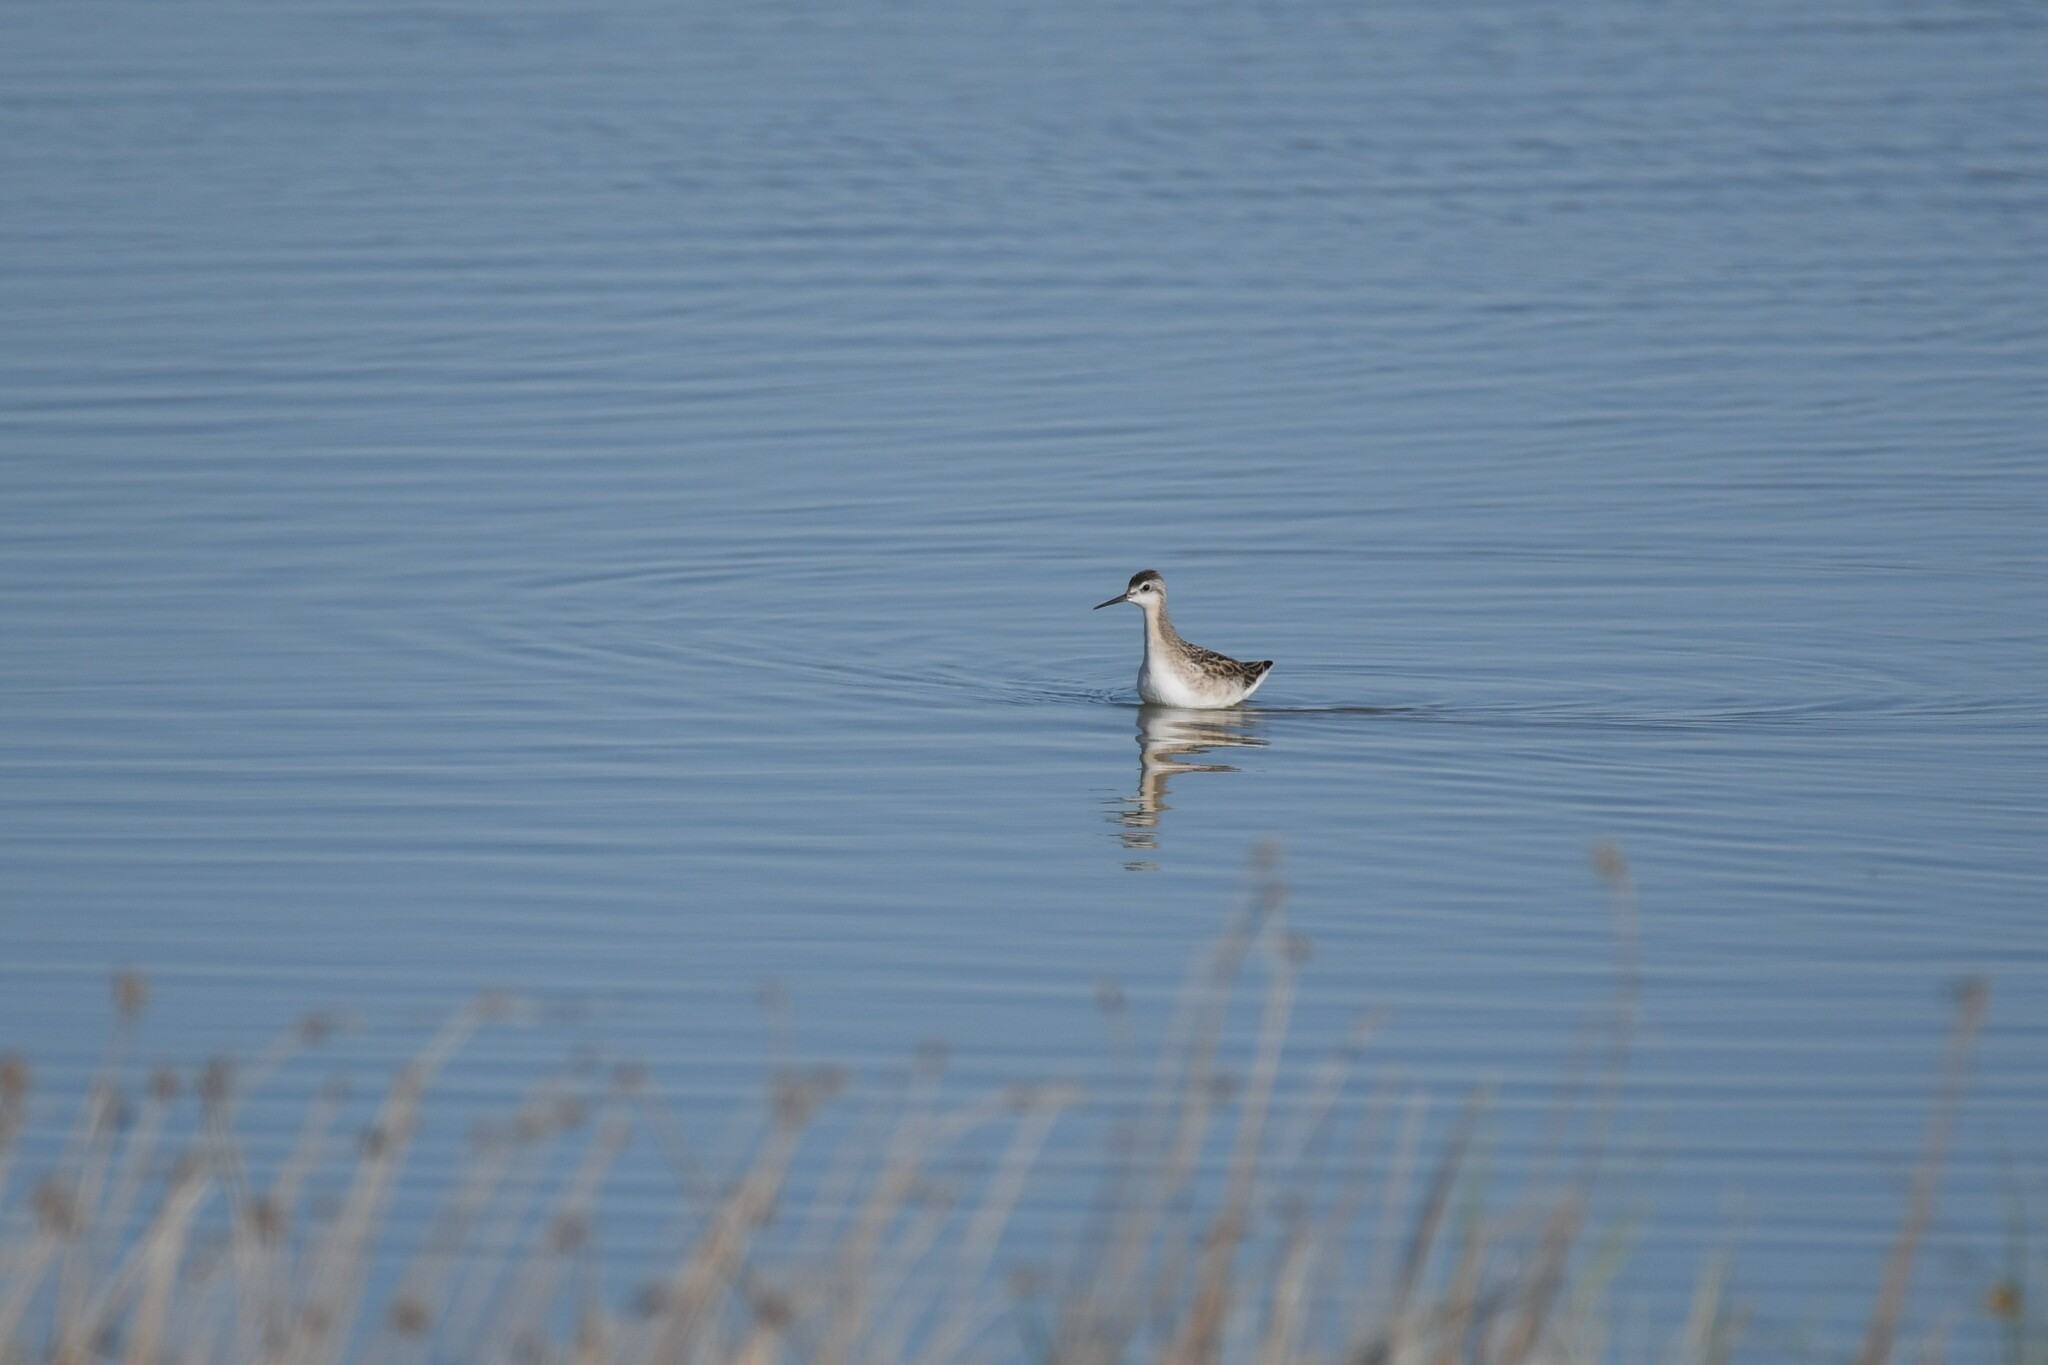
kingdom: Animalia
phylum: Chordata
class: Aves
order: Charadriiformes
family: Scolopacidae
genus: Phalaropus
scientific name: Phalaropus tricolor
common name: Wilson's phalarope
